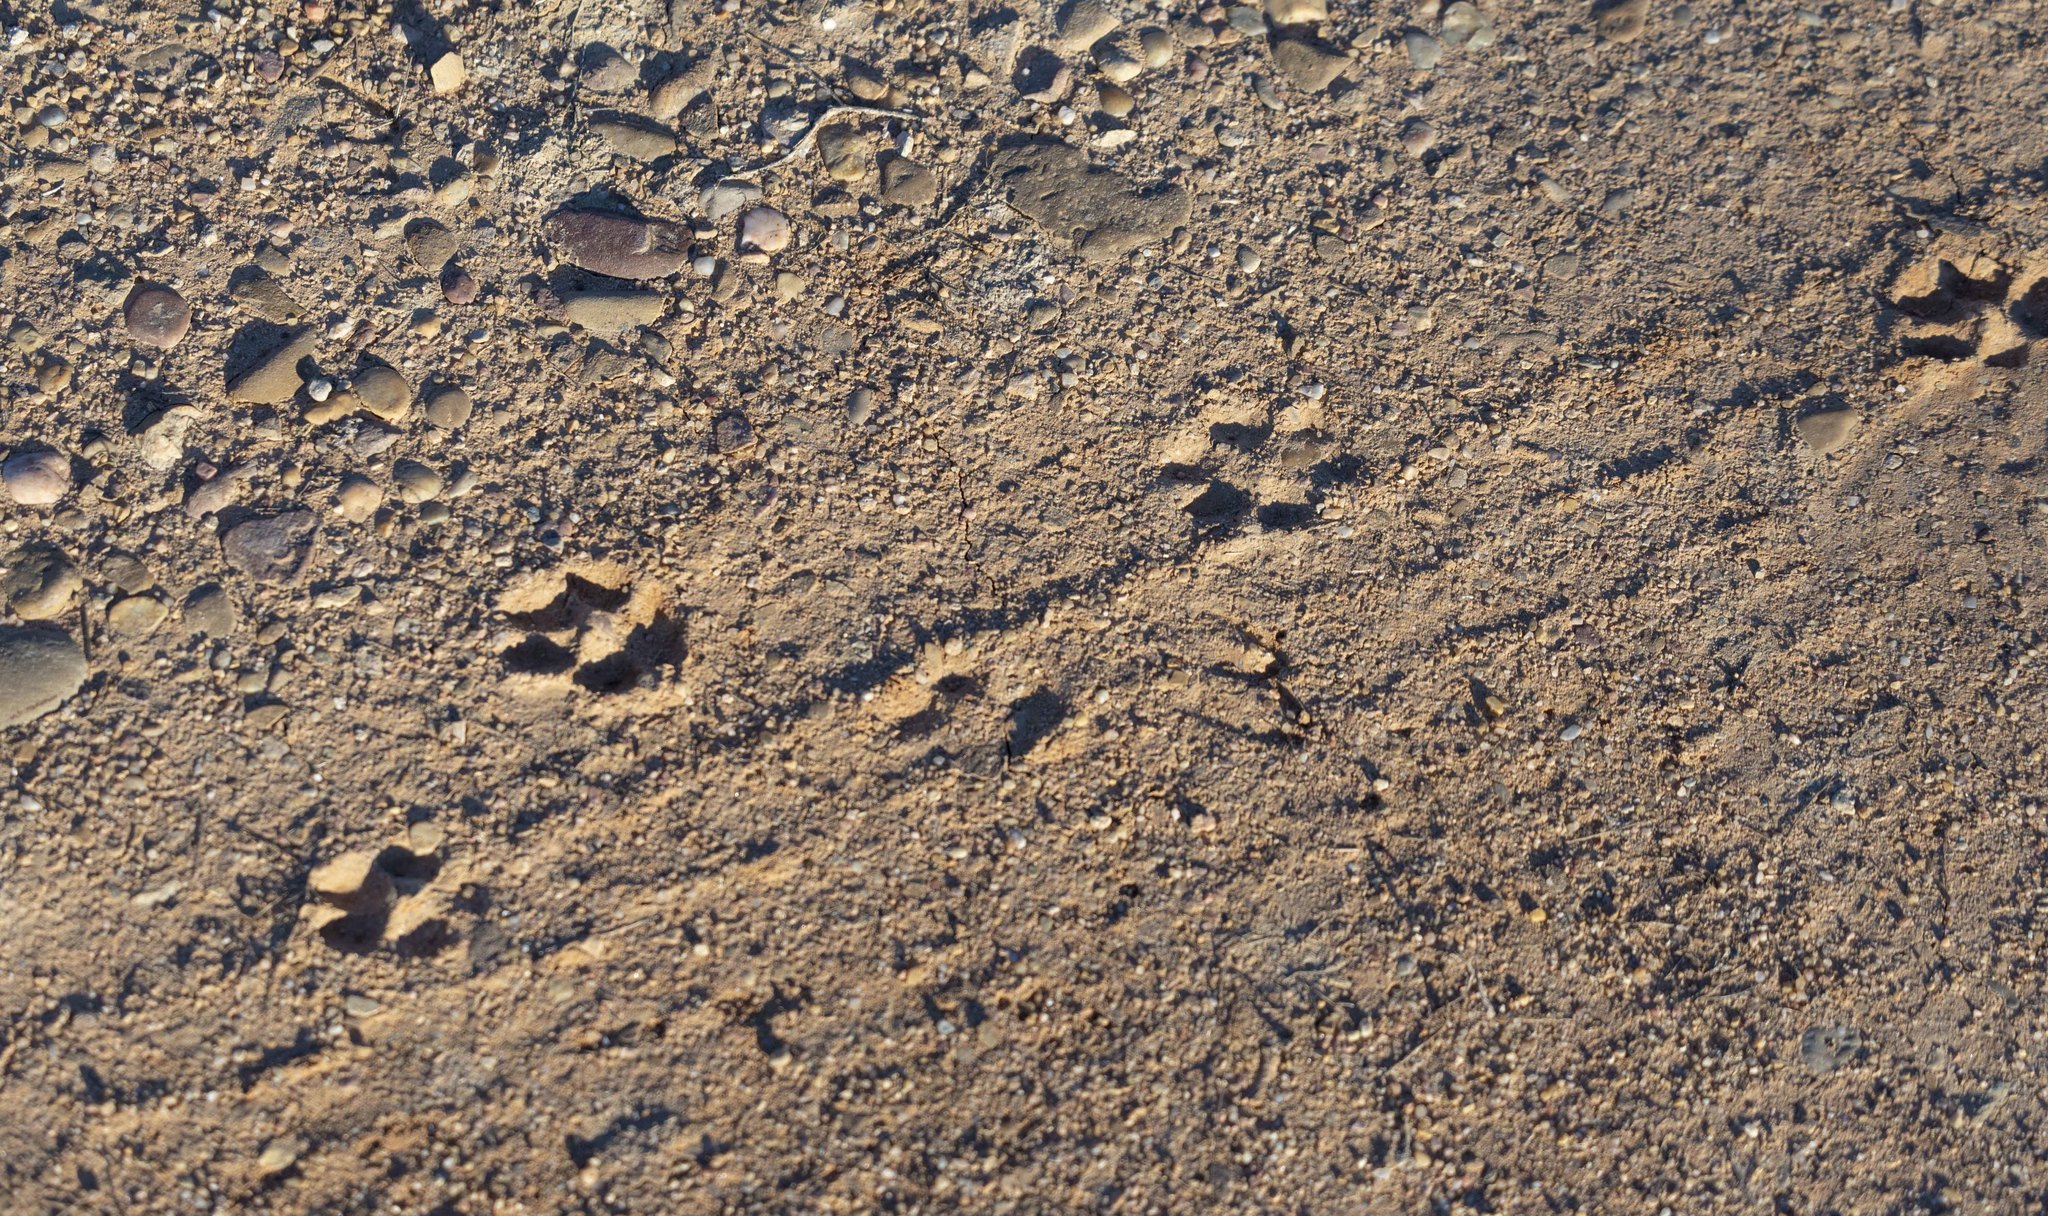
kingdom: Animalia
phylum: Chordata
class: Mammalia
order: Carnivora
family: Canidae
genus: Vulpes
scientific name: Vulpes vulpes
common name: Red fox
